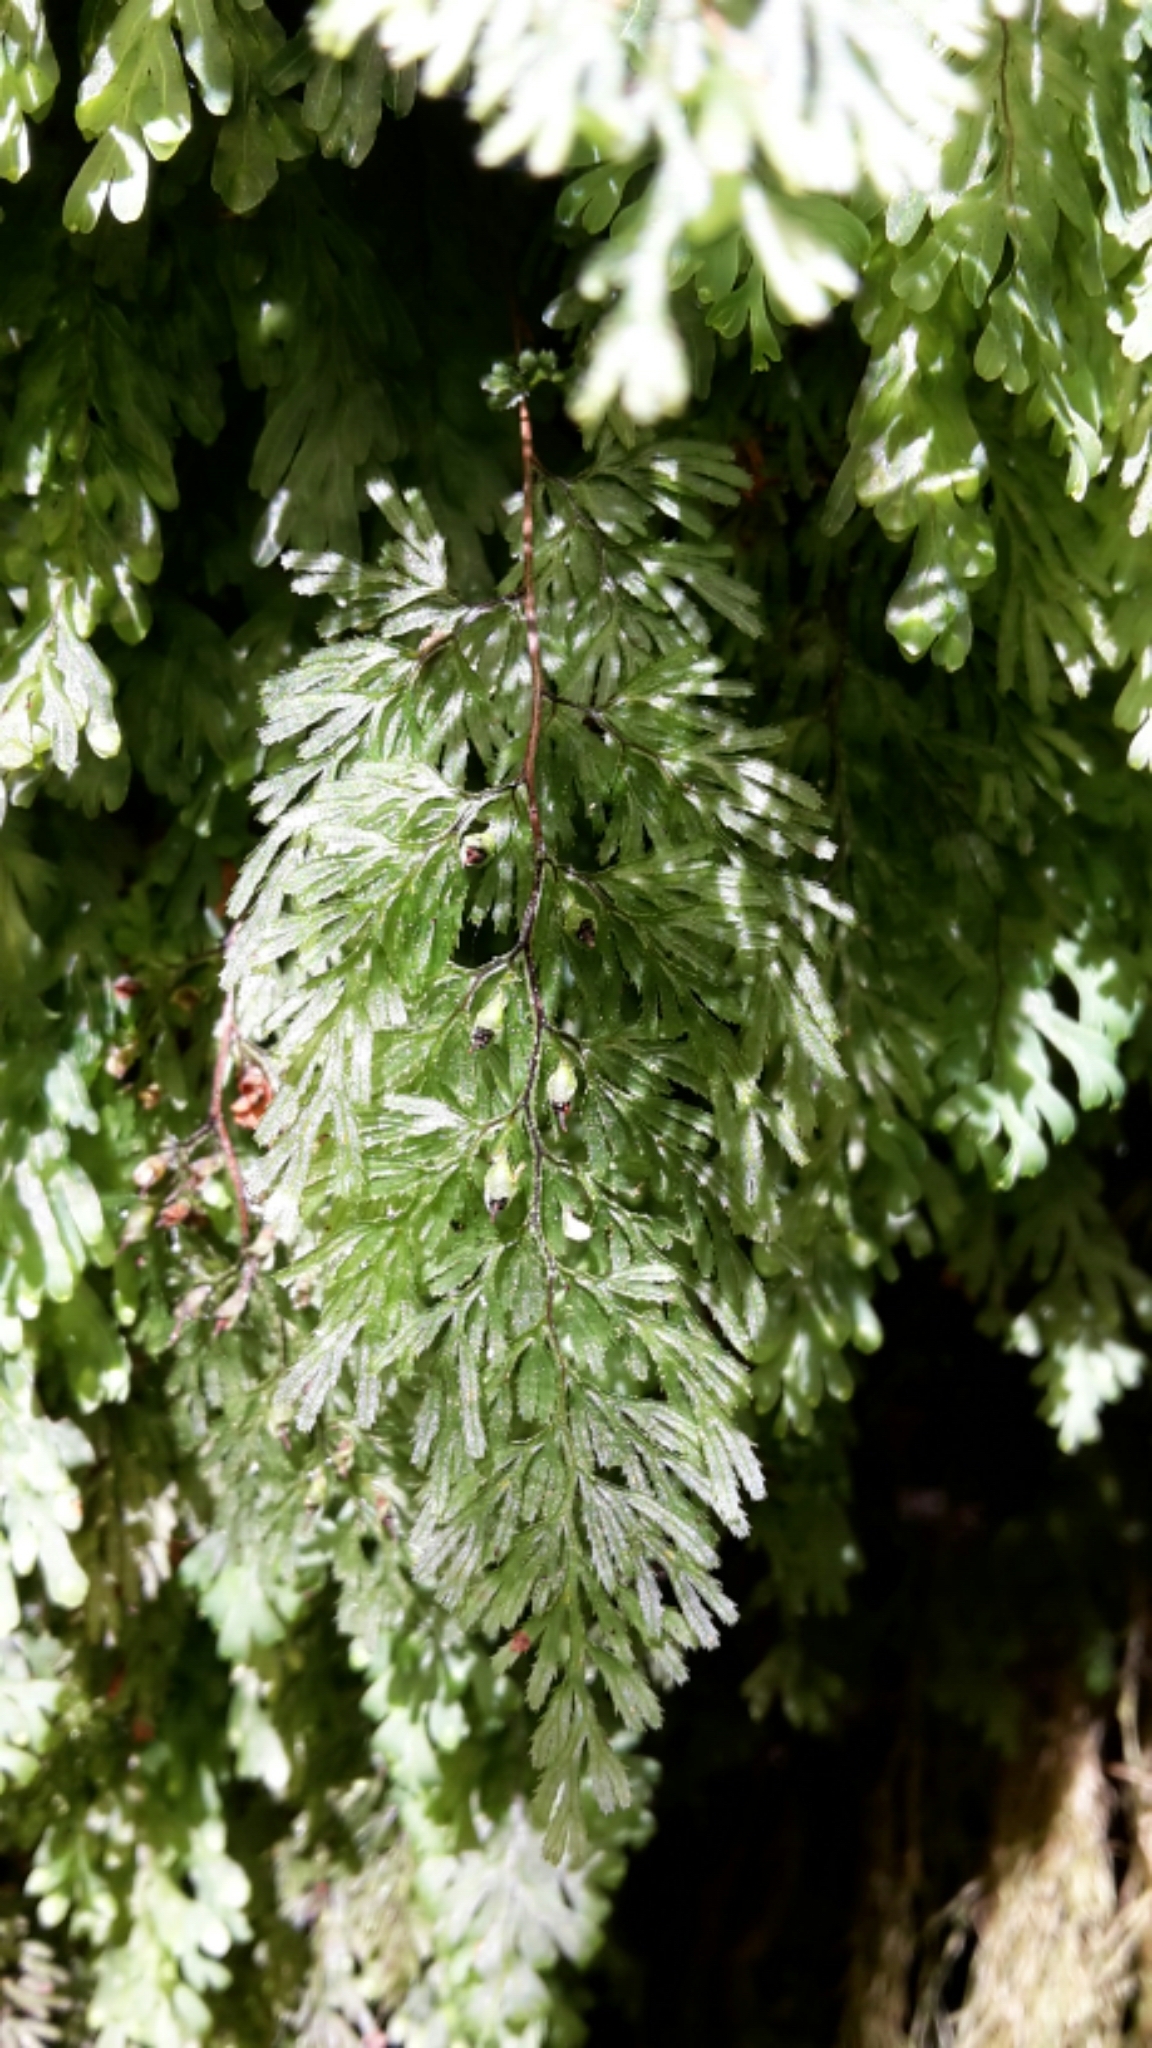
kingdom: Plantae
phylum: Tracheophyta
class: Polypodiopsida
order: Hymenophyllales
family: Hymenophyllaceae
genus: Hymenophyllum
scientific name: Hymenophyllum multifidum
